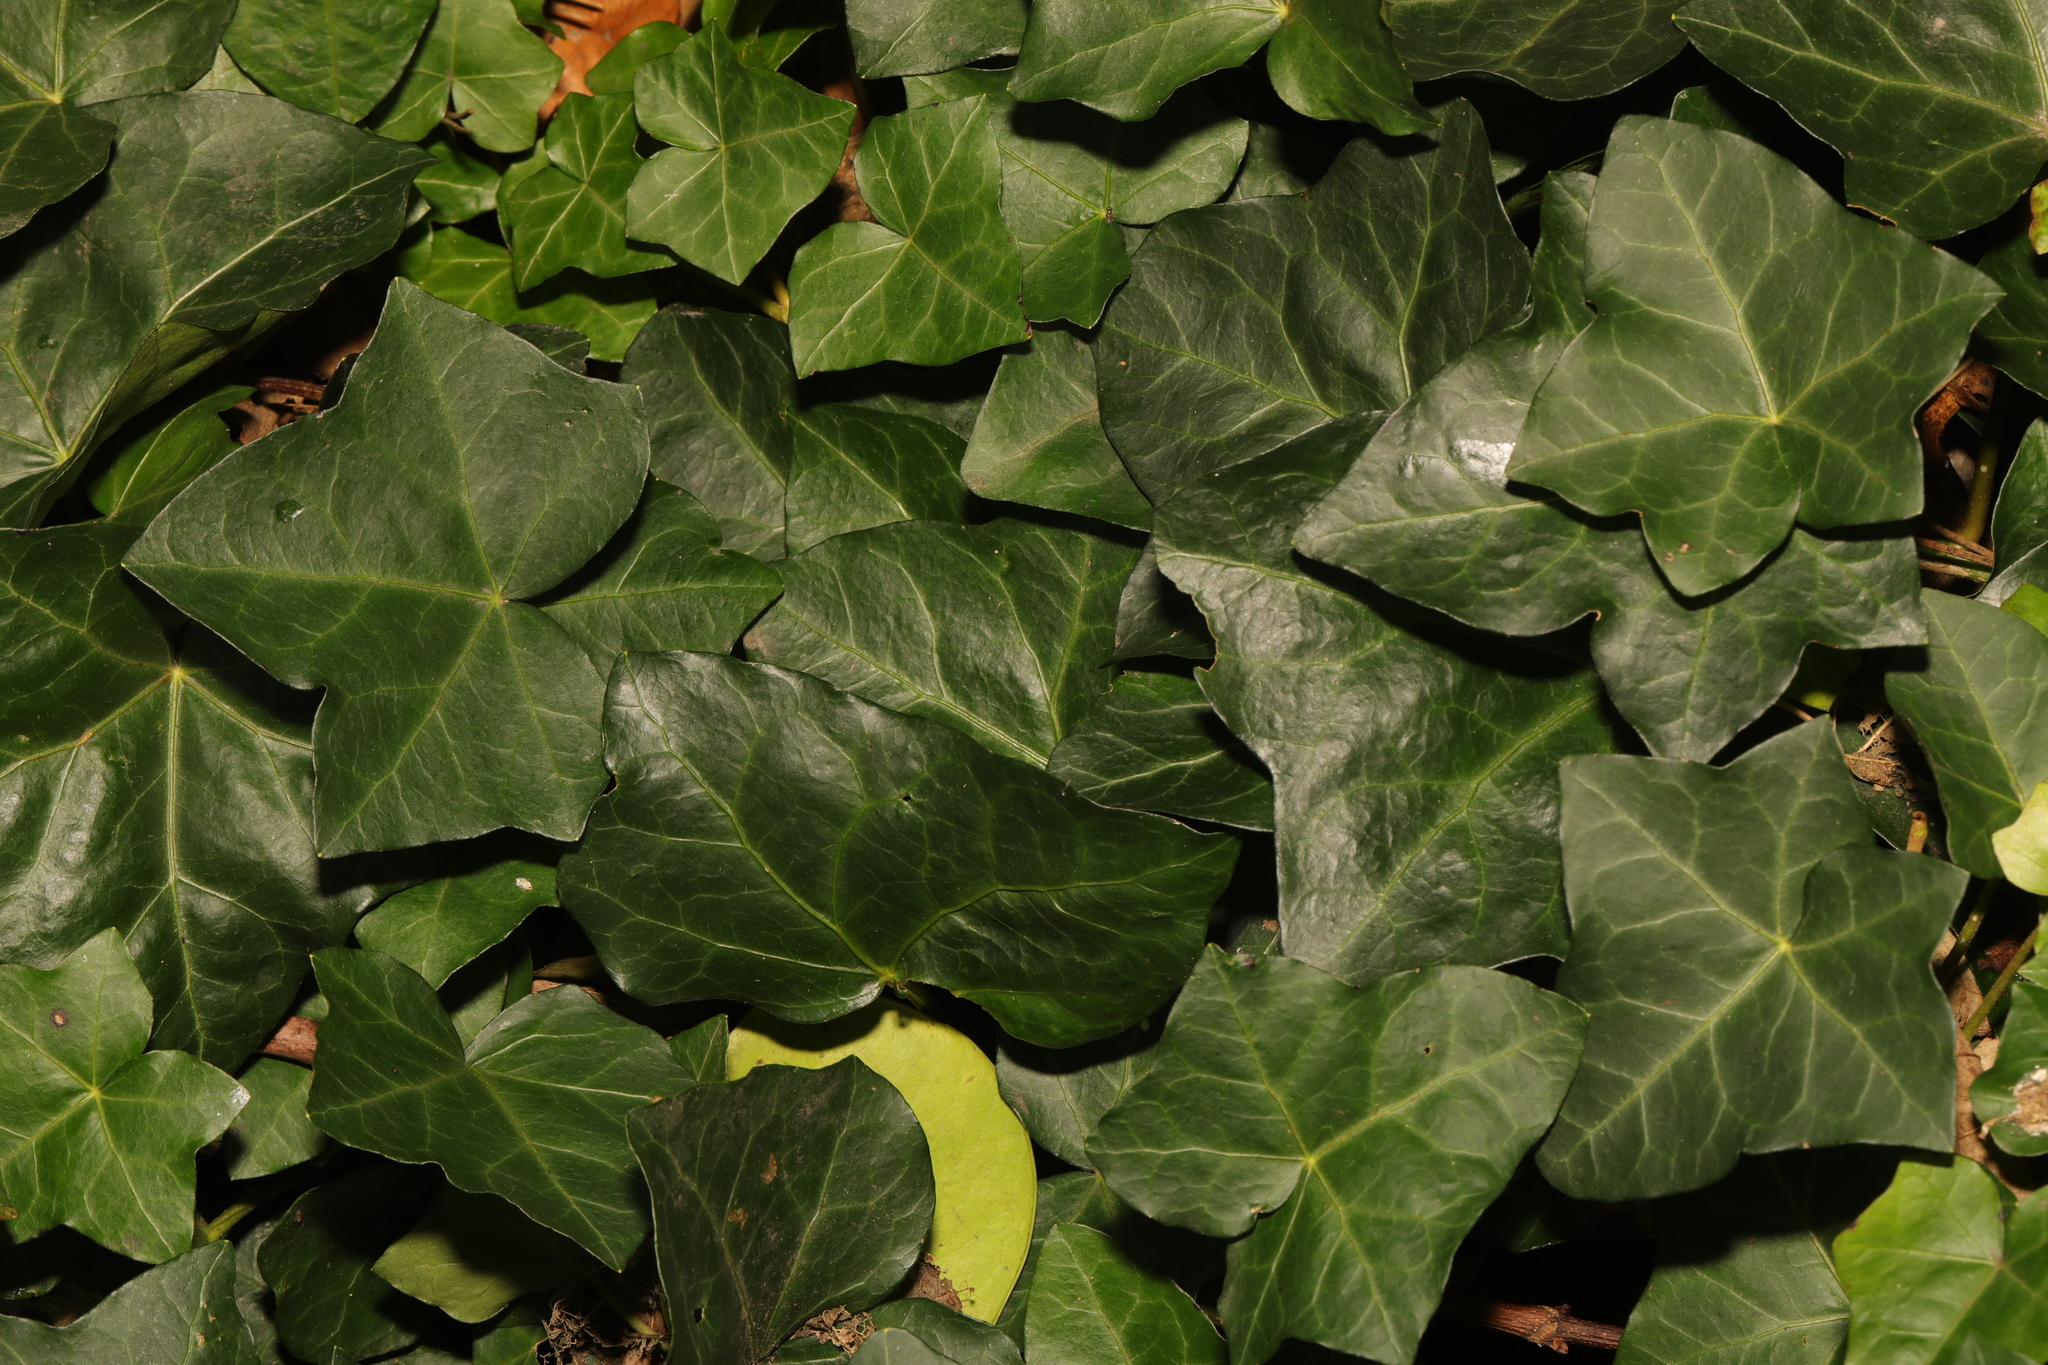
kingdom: Plantae
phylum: Tracheophyta
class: Magnoliopsida
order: Apiales
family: Araliaceae
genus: Hedera
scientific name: Hedera helix
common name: Ivy
